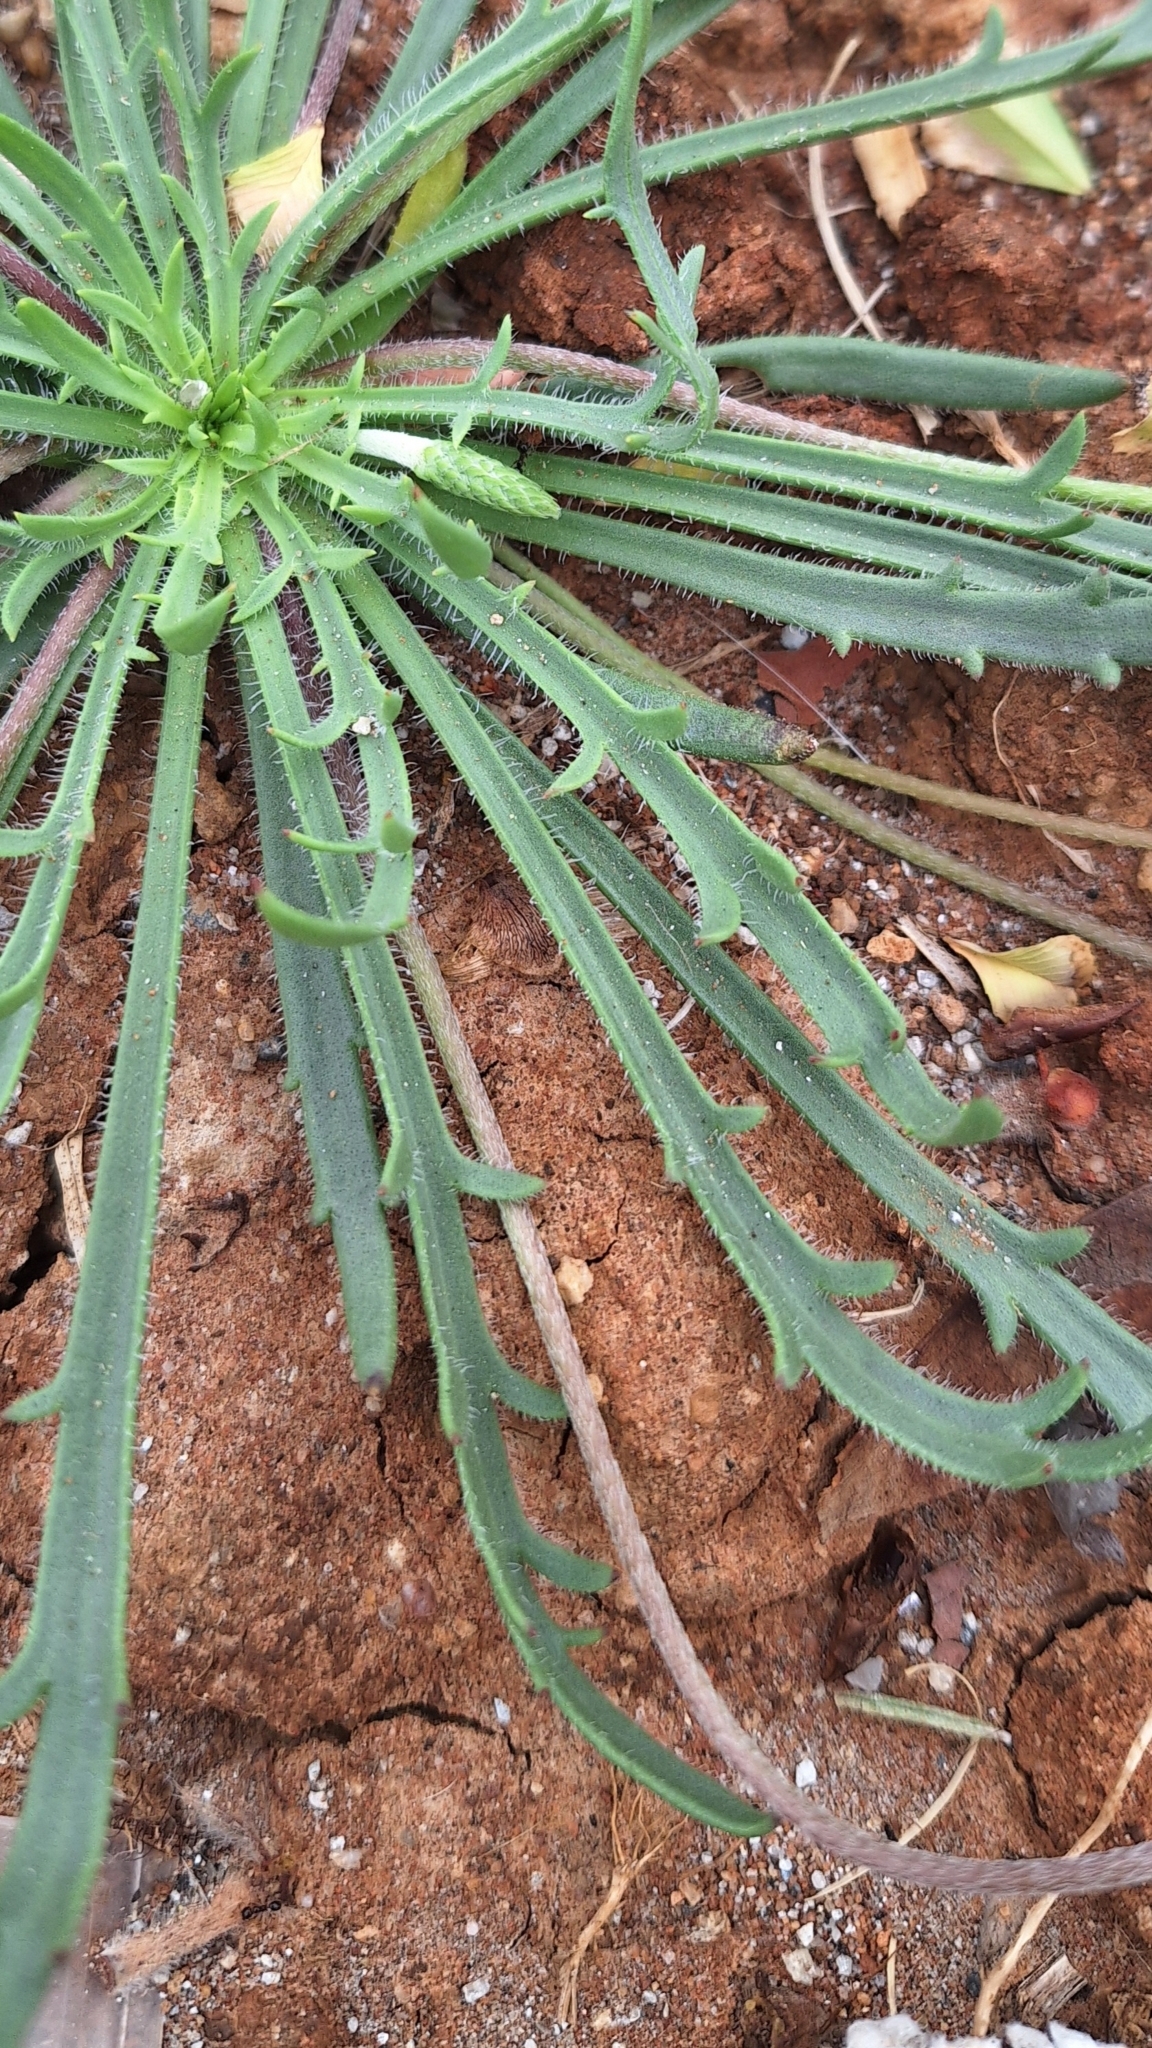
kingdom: Plantae
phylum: Tracheophyta
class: Magnoliopsida
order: Lamiales
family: Plantaginaceae
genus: Plantago
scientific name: Plantago coronopus
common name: Buck's-horn plantain
